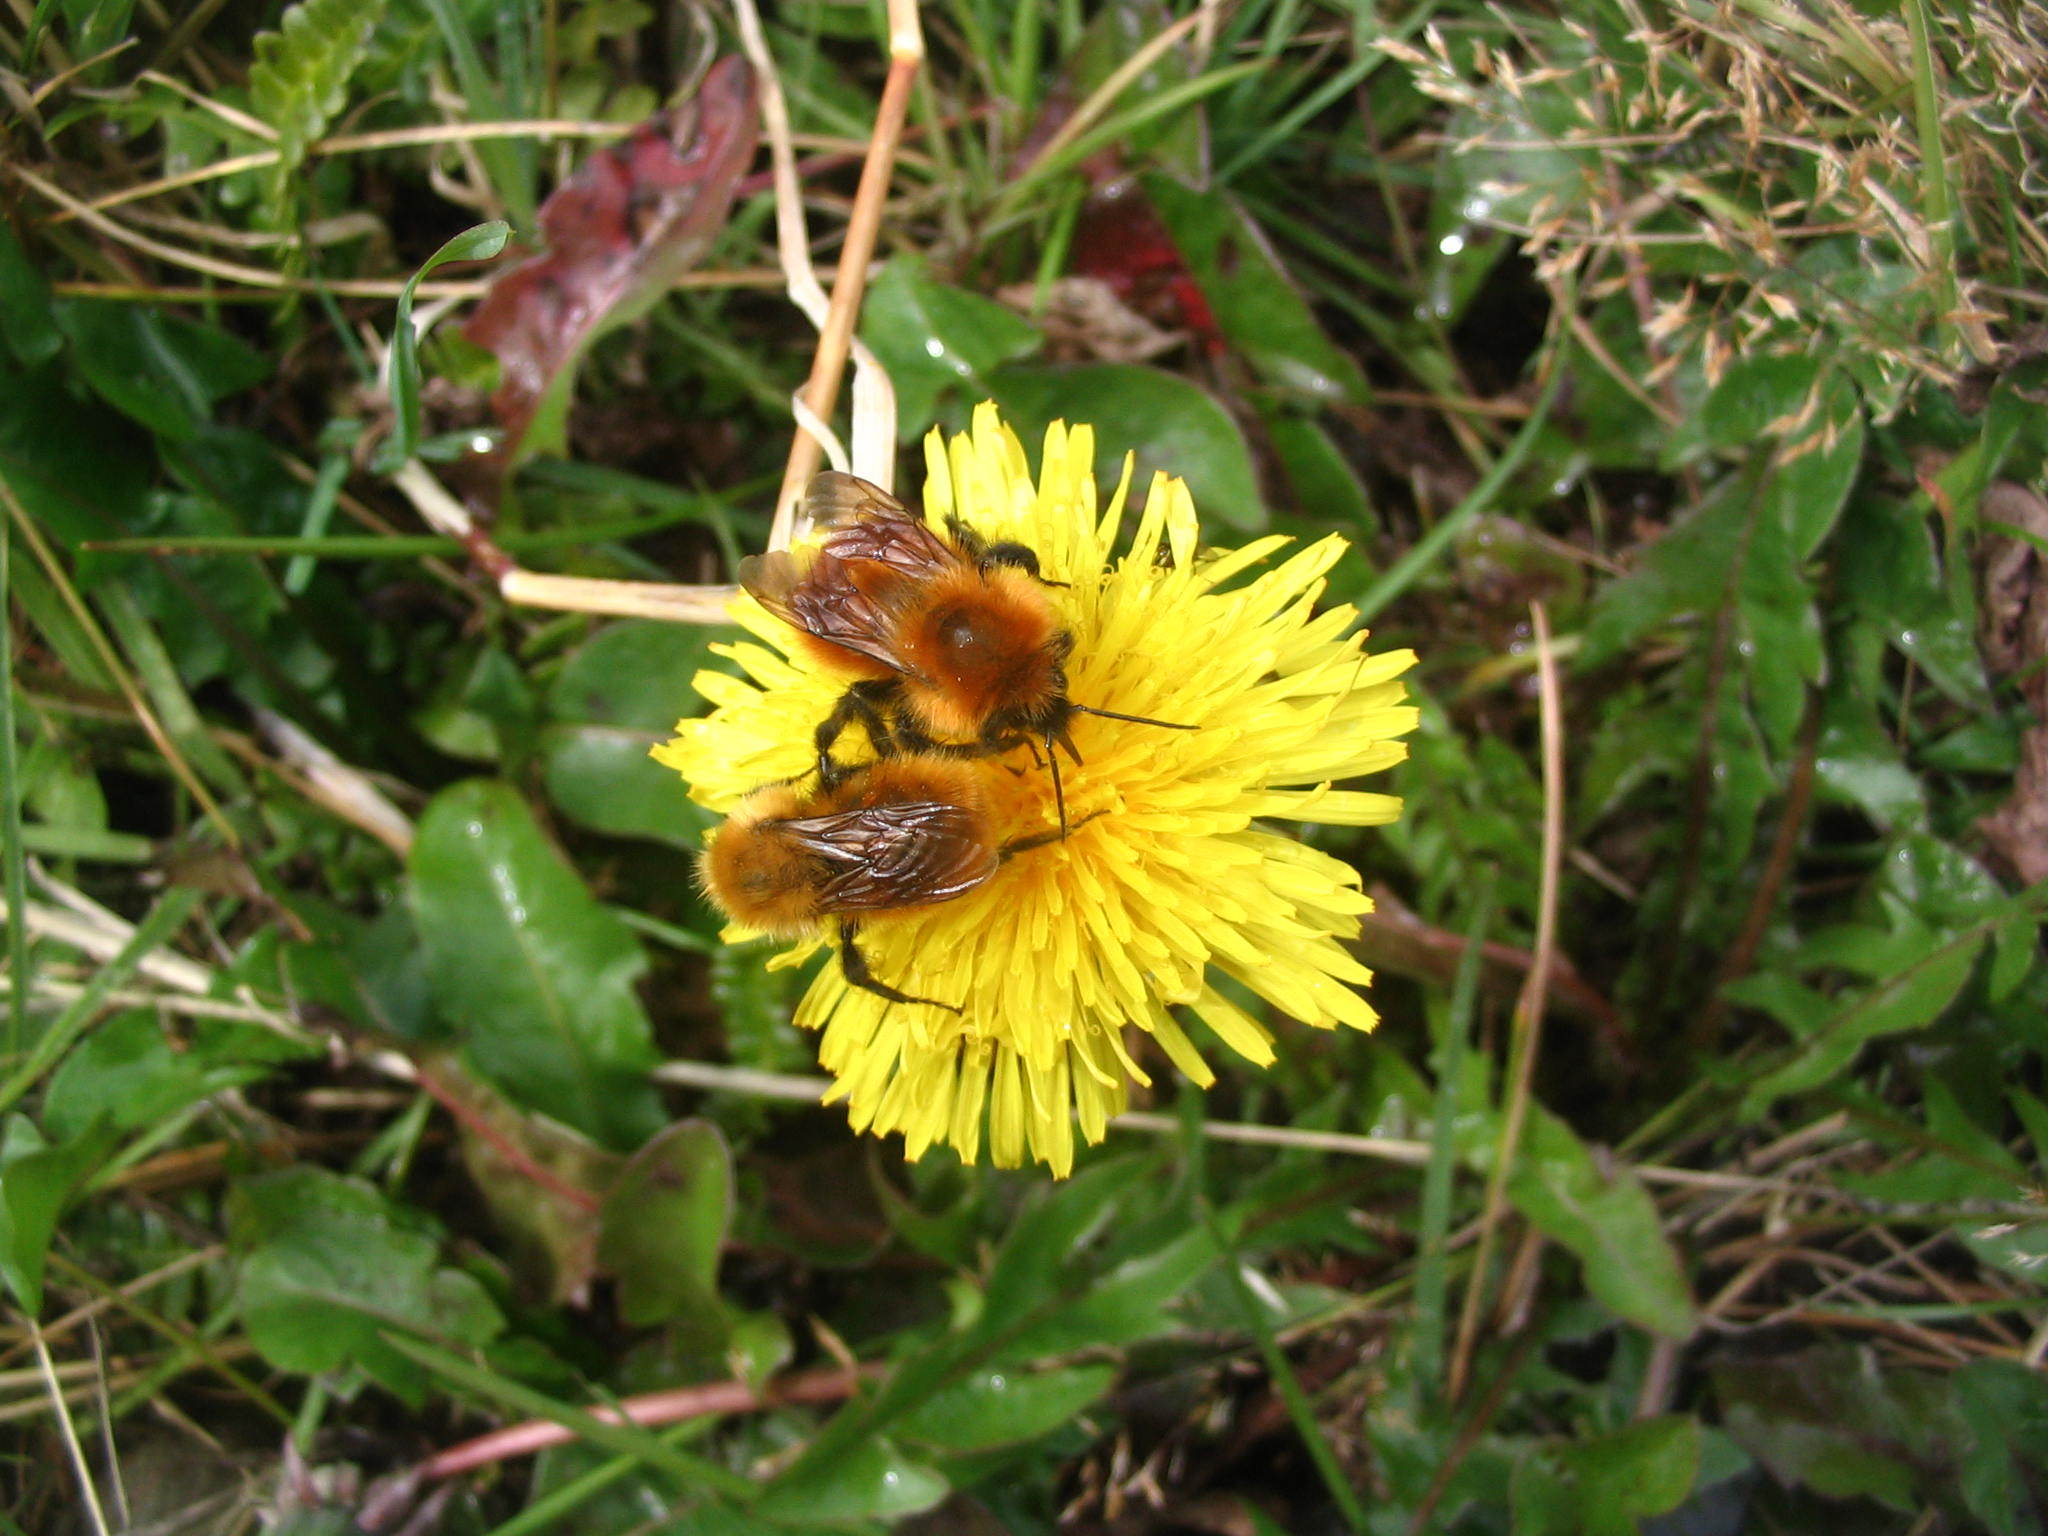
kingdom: Animalia
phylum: Arthropoda
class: Insecta
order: Hymenoptera
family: Apidae
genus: Bombus
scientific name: Bombus dahlbomii
